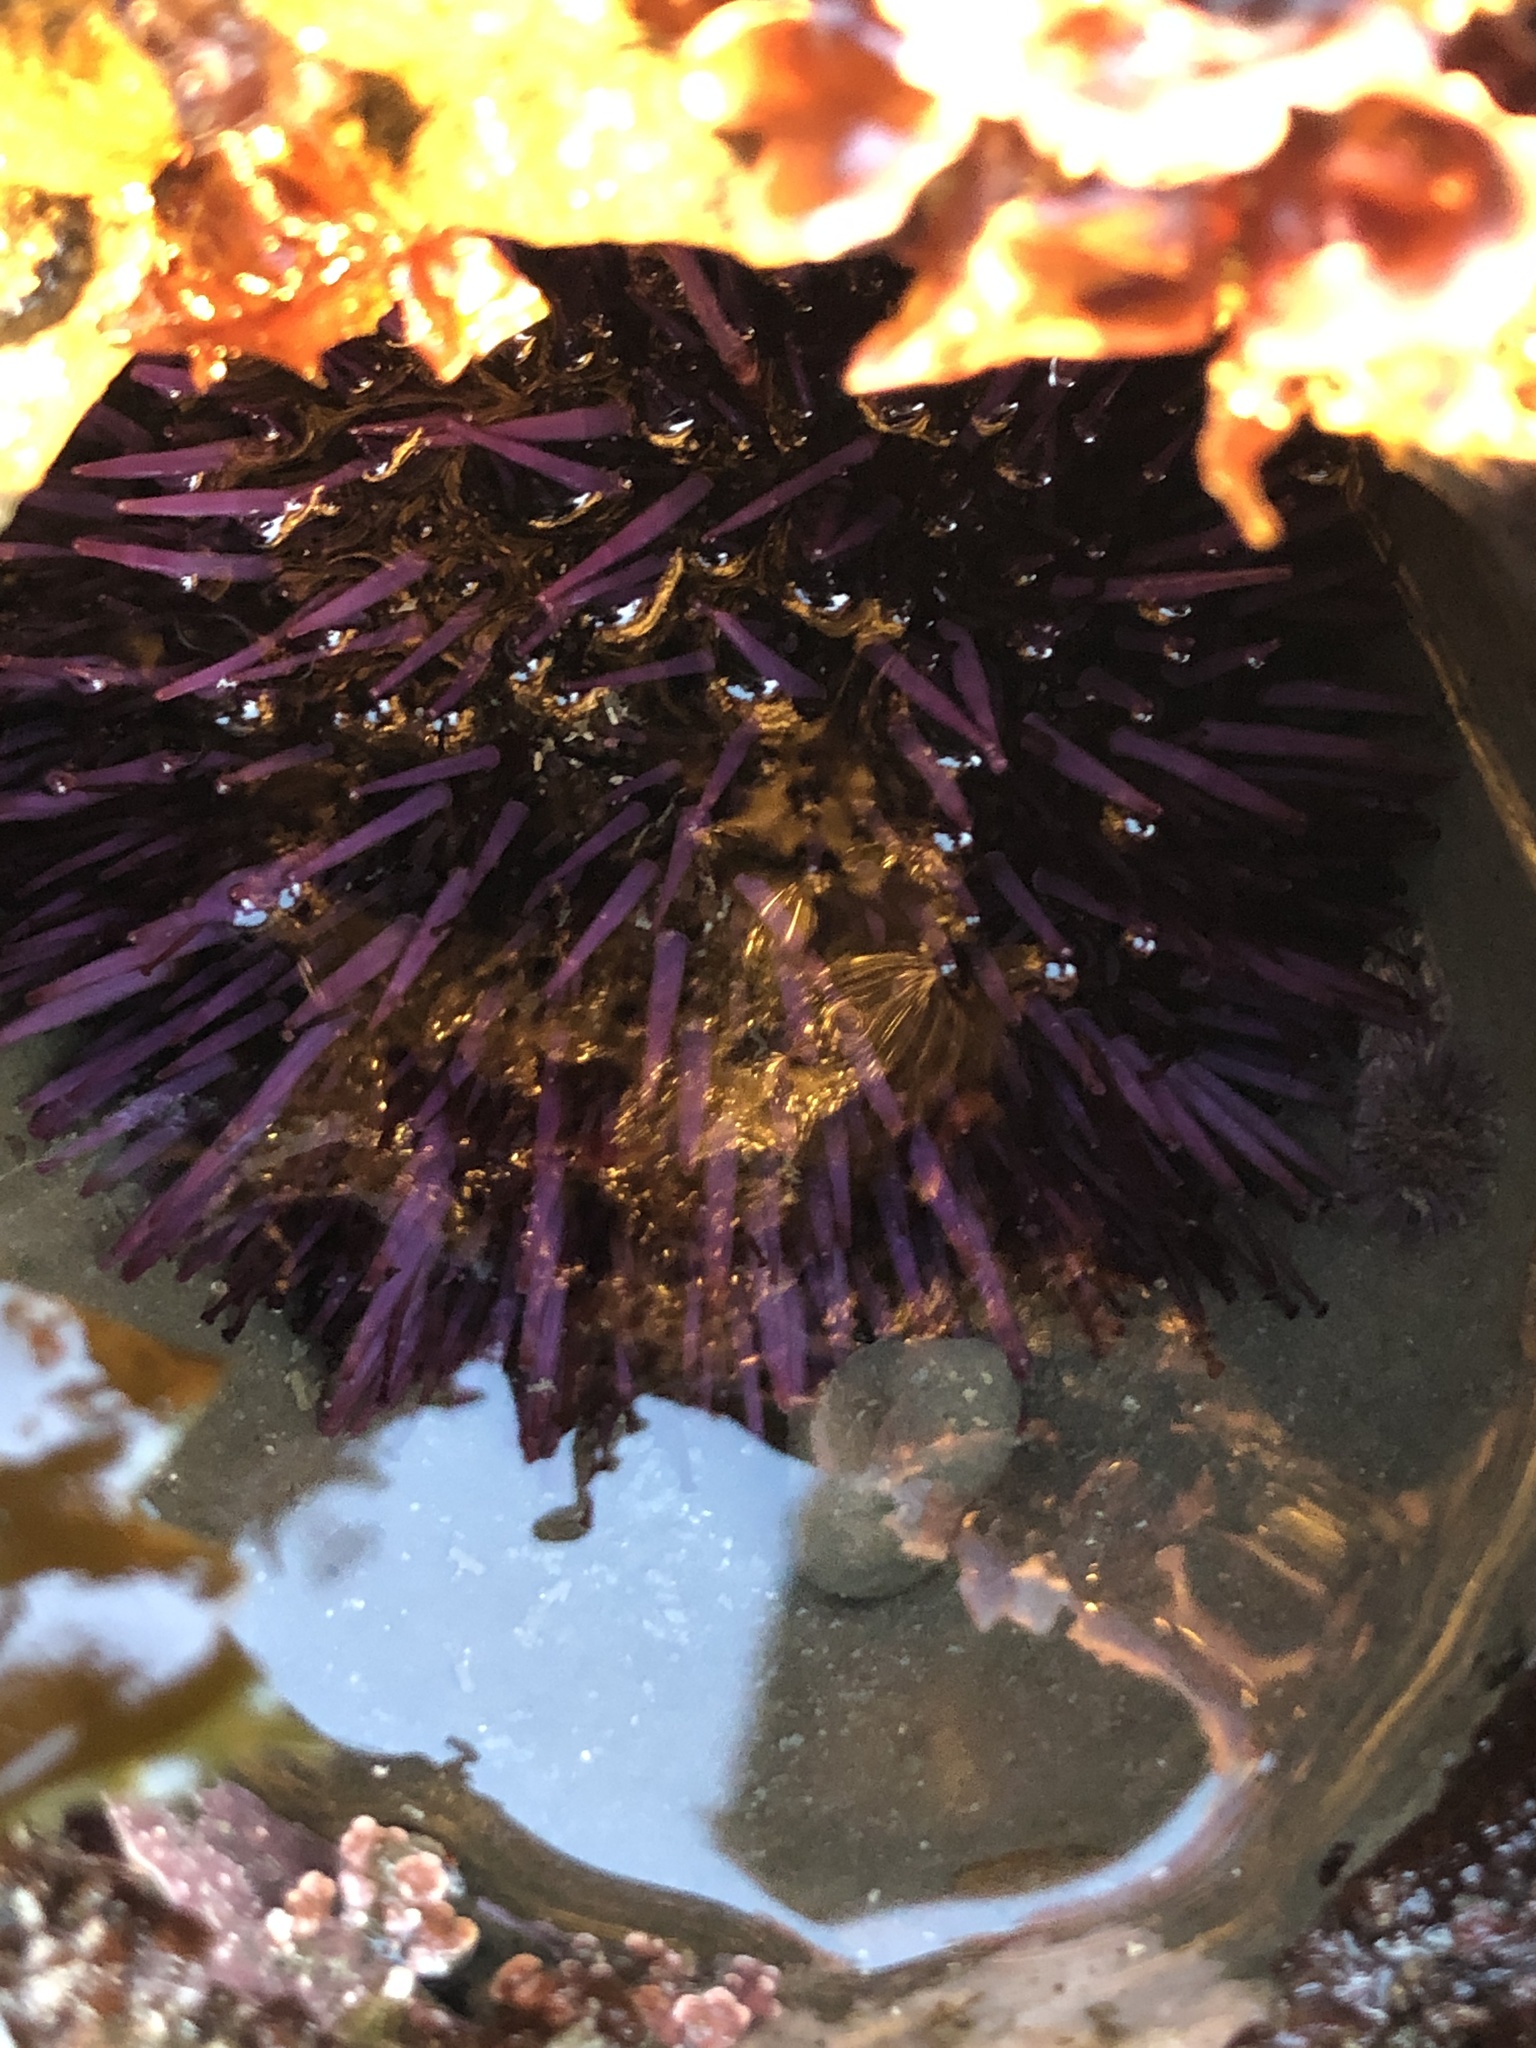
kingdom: Animalia
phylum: Echinodermata
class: Echinoidea
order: Camarodonta
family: Strongylocentrotidae
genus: Strongylocentrotus
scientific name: Strongylocentrotus purpuratus
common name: Purple sea urchin
